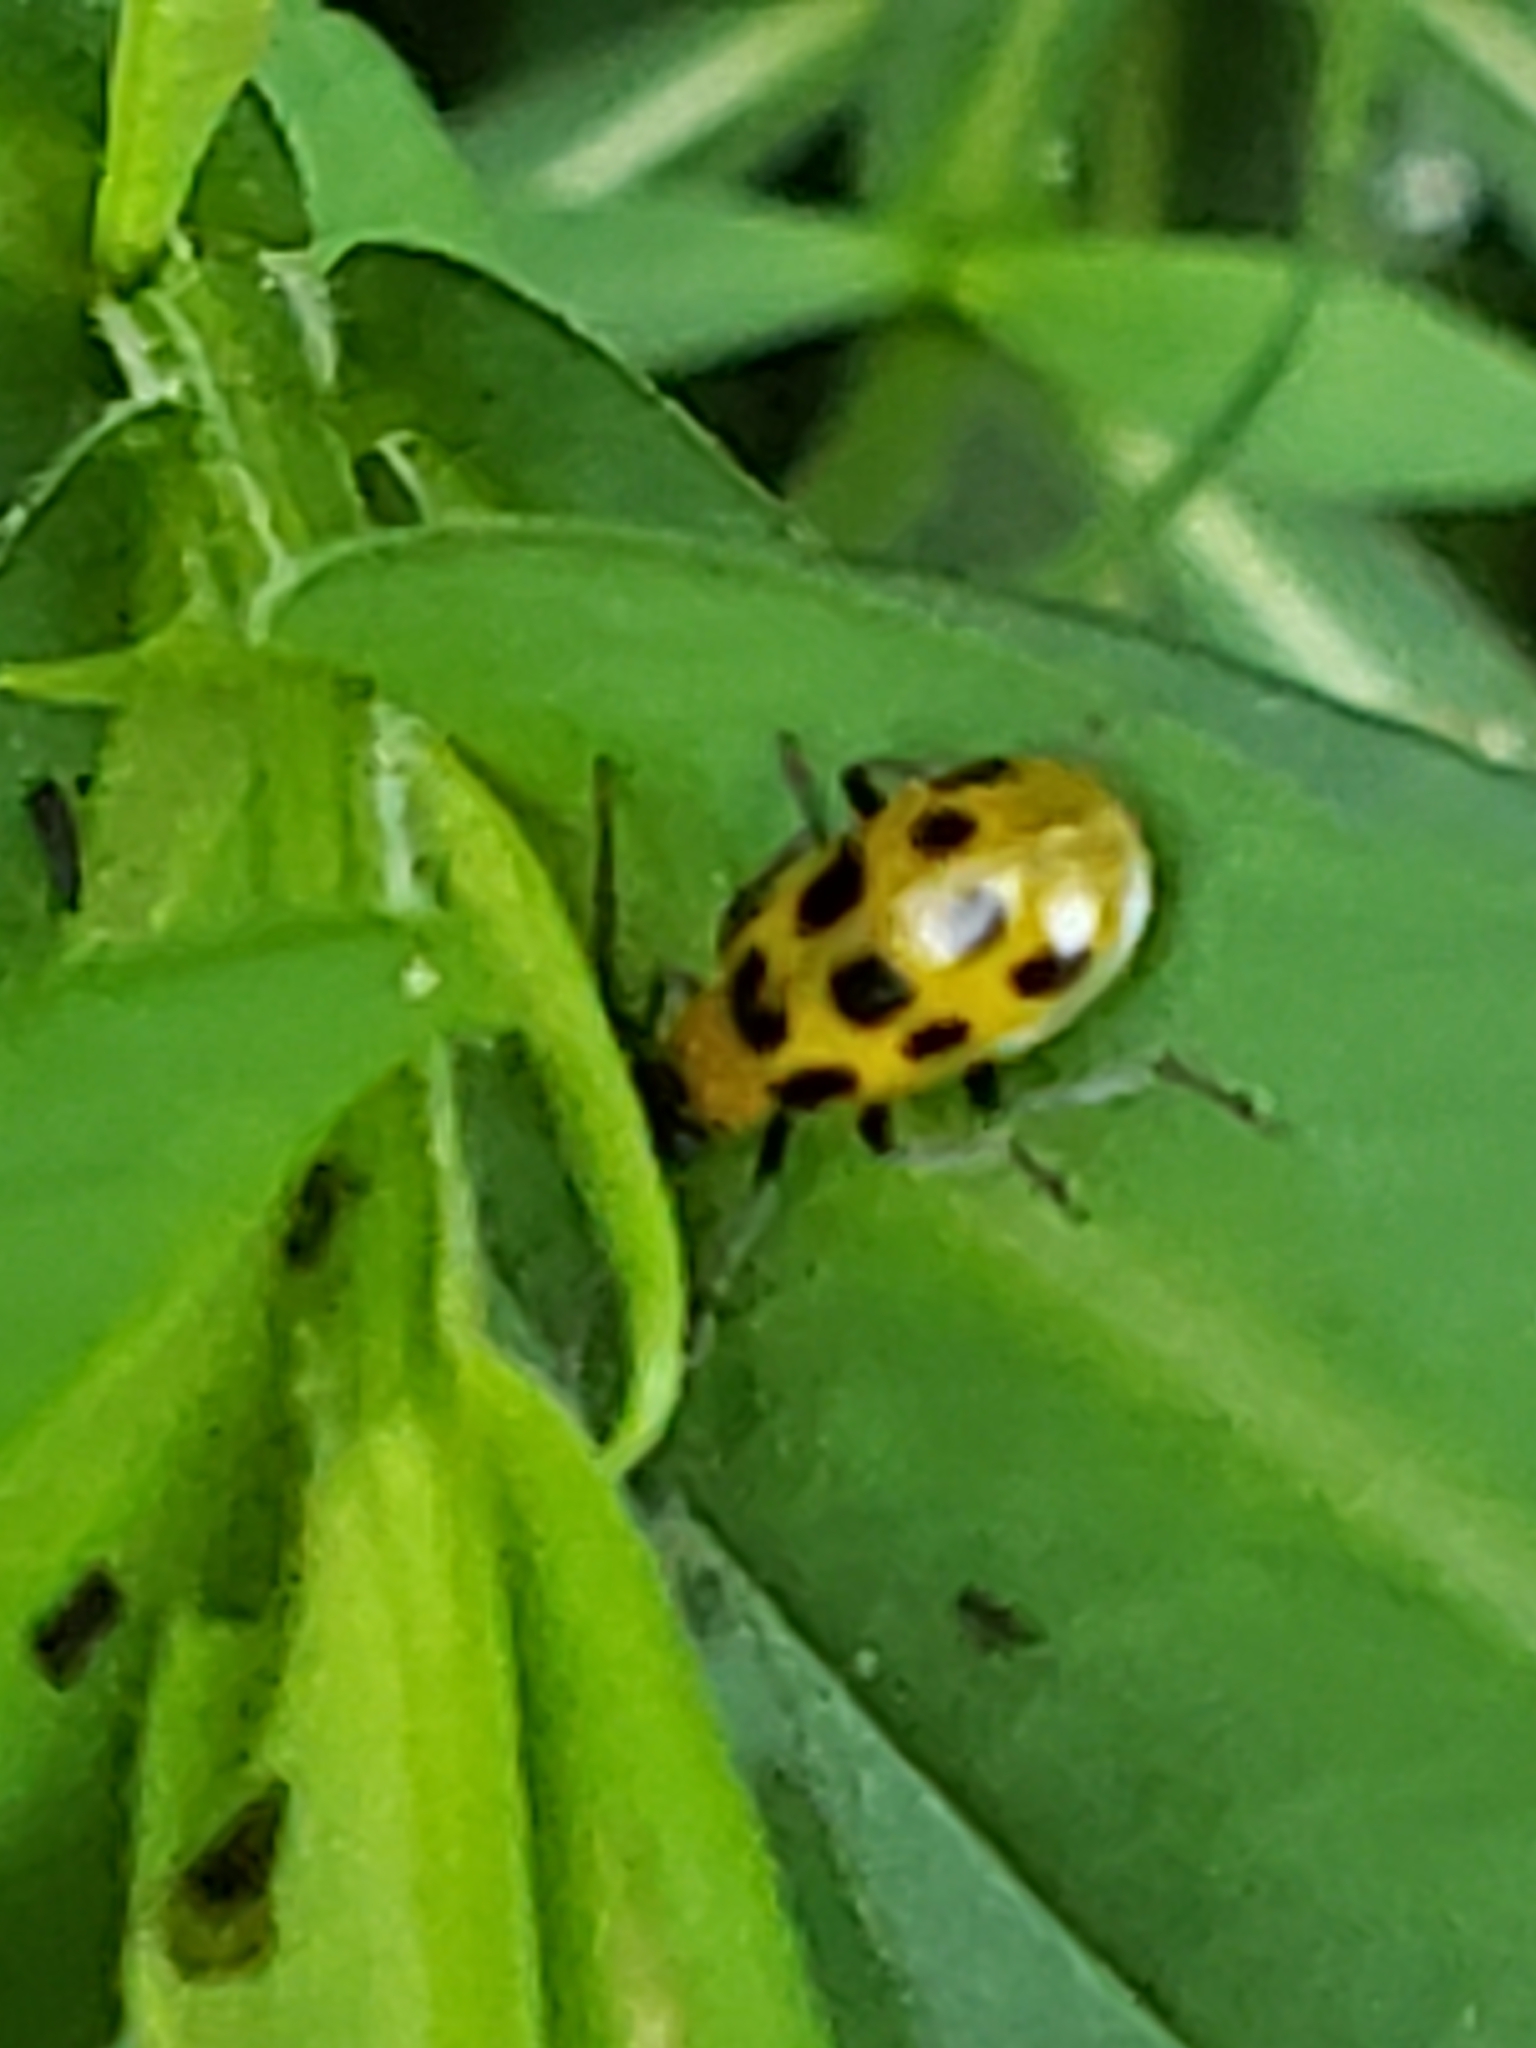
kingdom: Animalia
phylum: Arthropoda
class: Insecta
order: Coleoptera
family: Chrysomelidae
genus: Diabrotica
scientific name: Diabrotica undecimpunctata
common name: Spotted cucumber beetle
